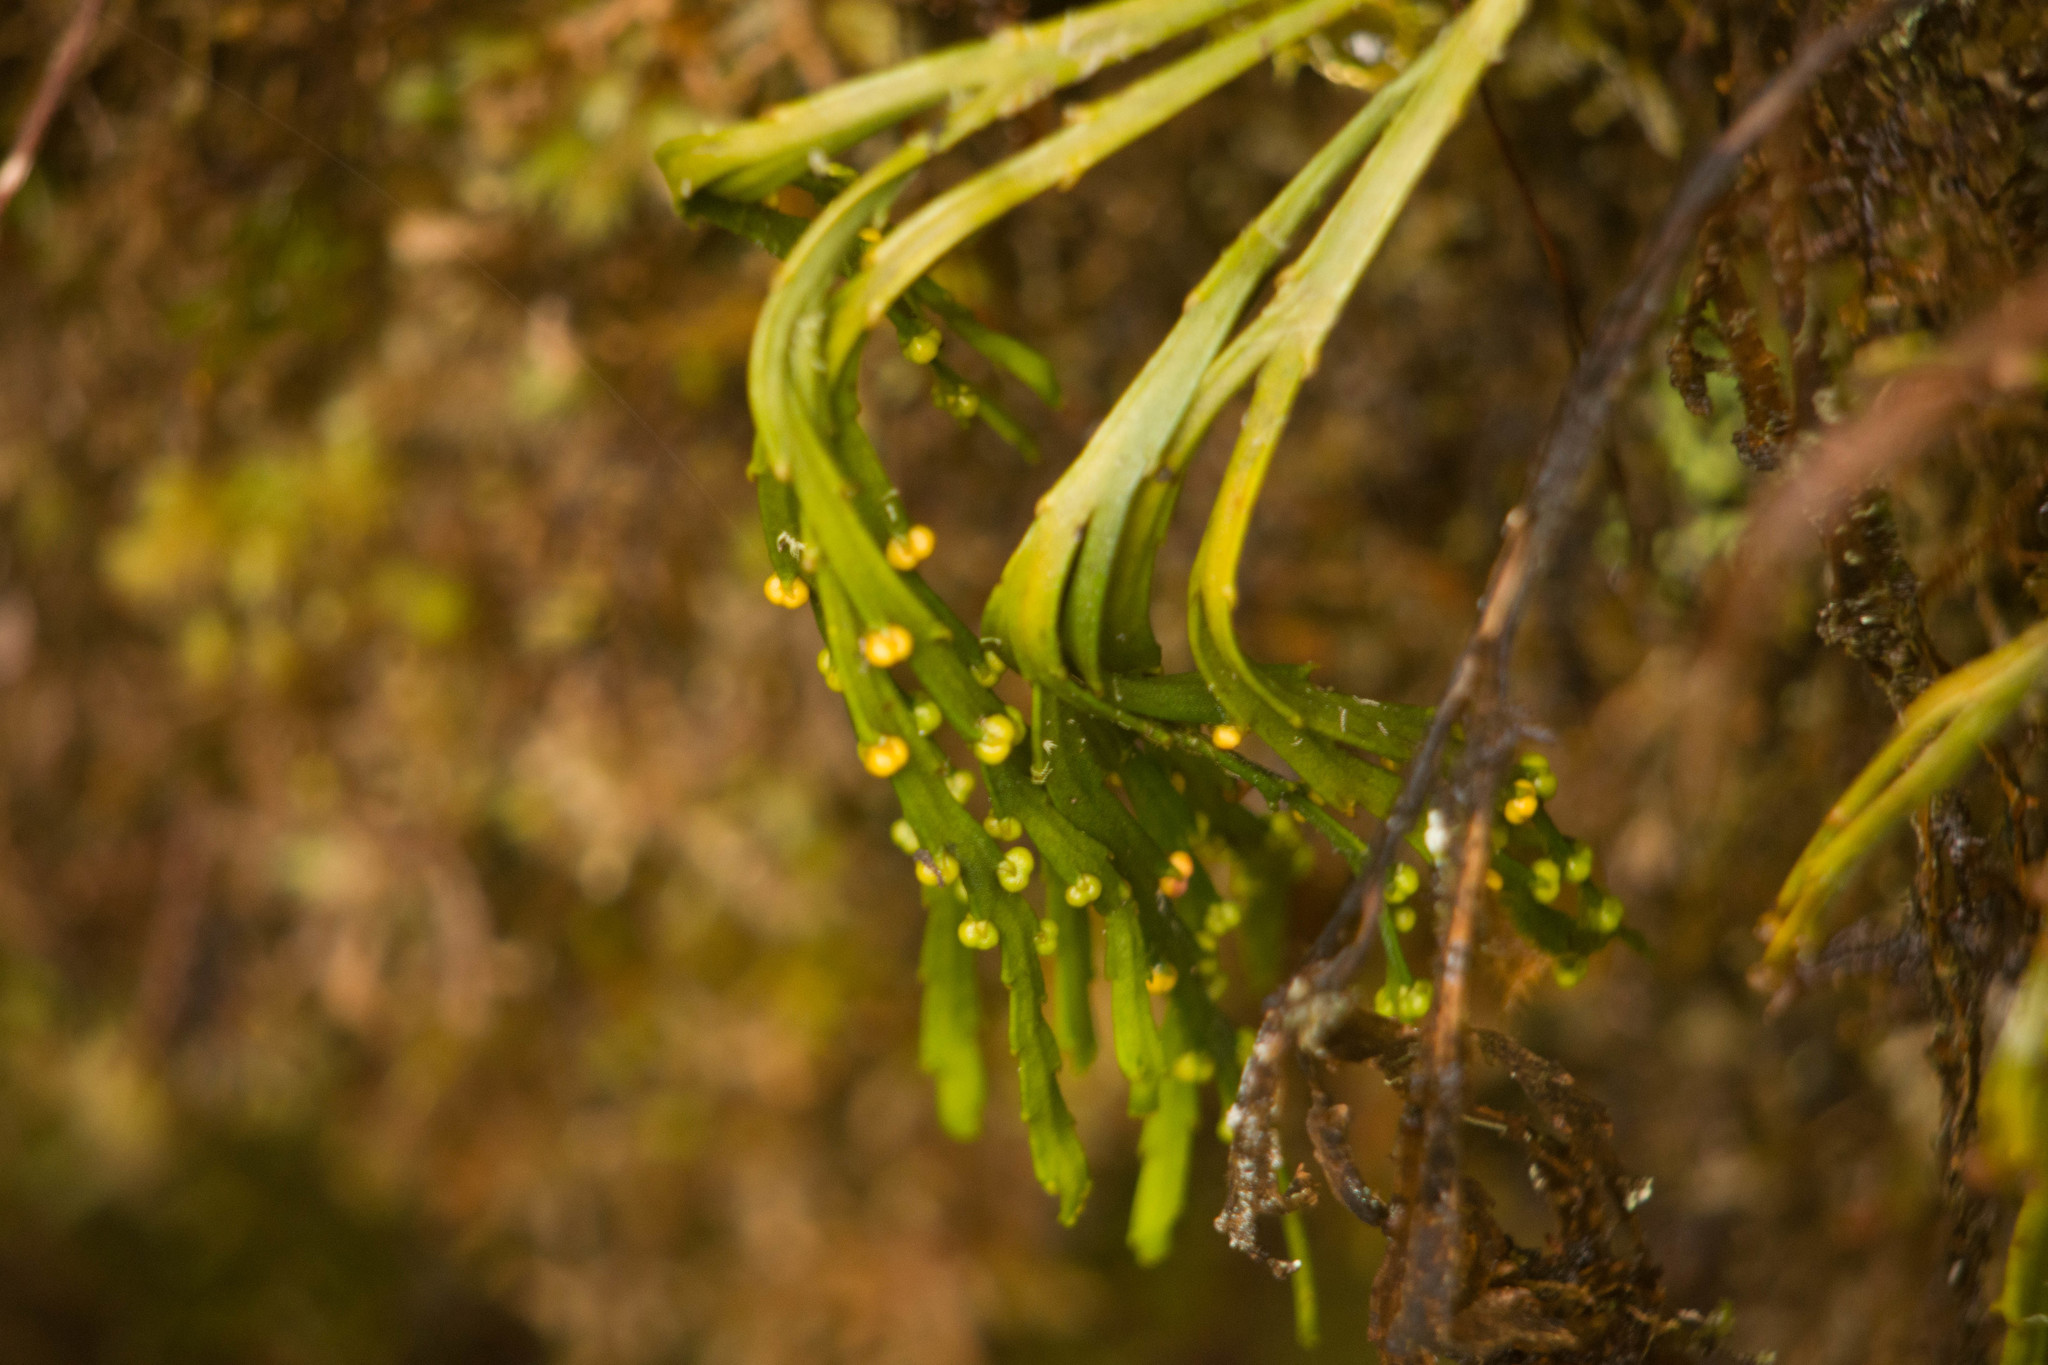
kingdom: Plantae
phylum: Tracheophyta
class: Polypodiopsida
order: Psilotales
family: Psilotaceae
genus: Psilotum
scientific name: Psilotum complanatum
